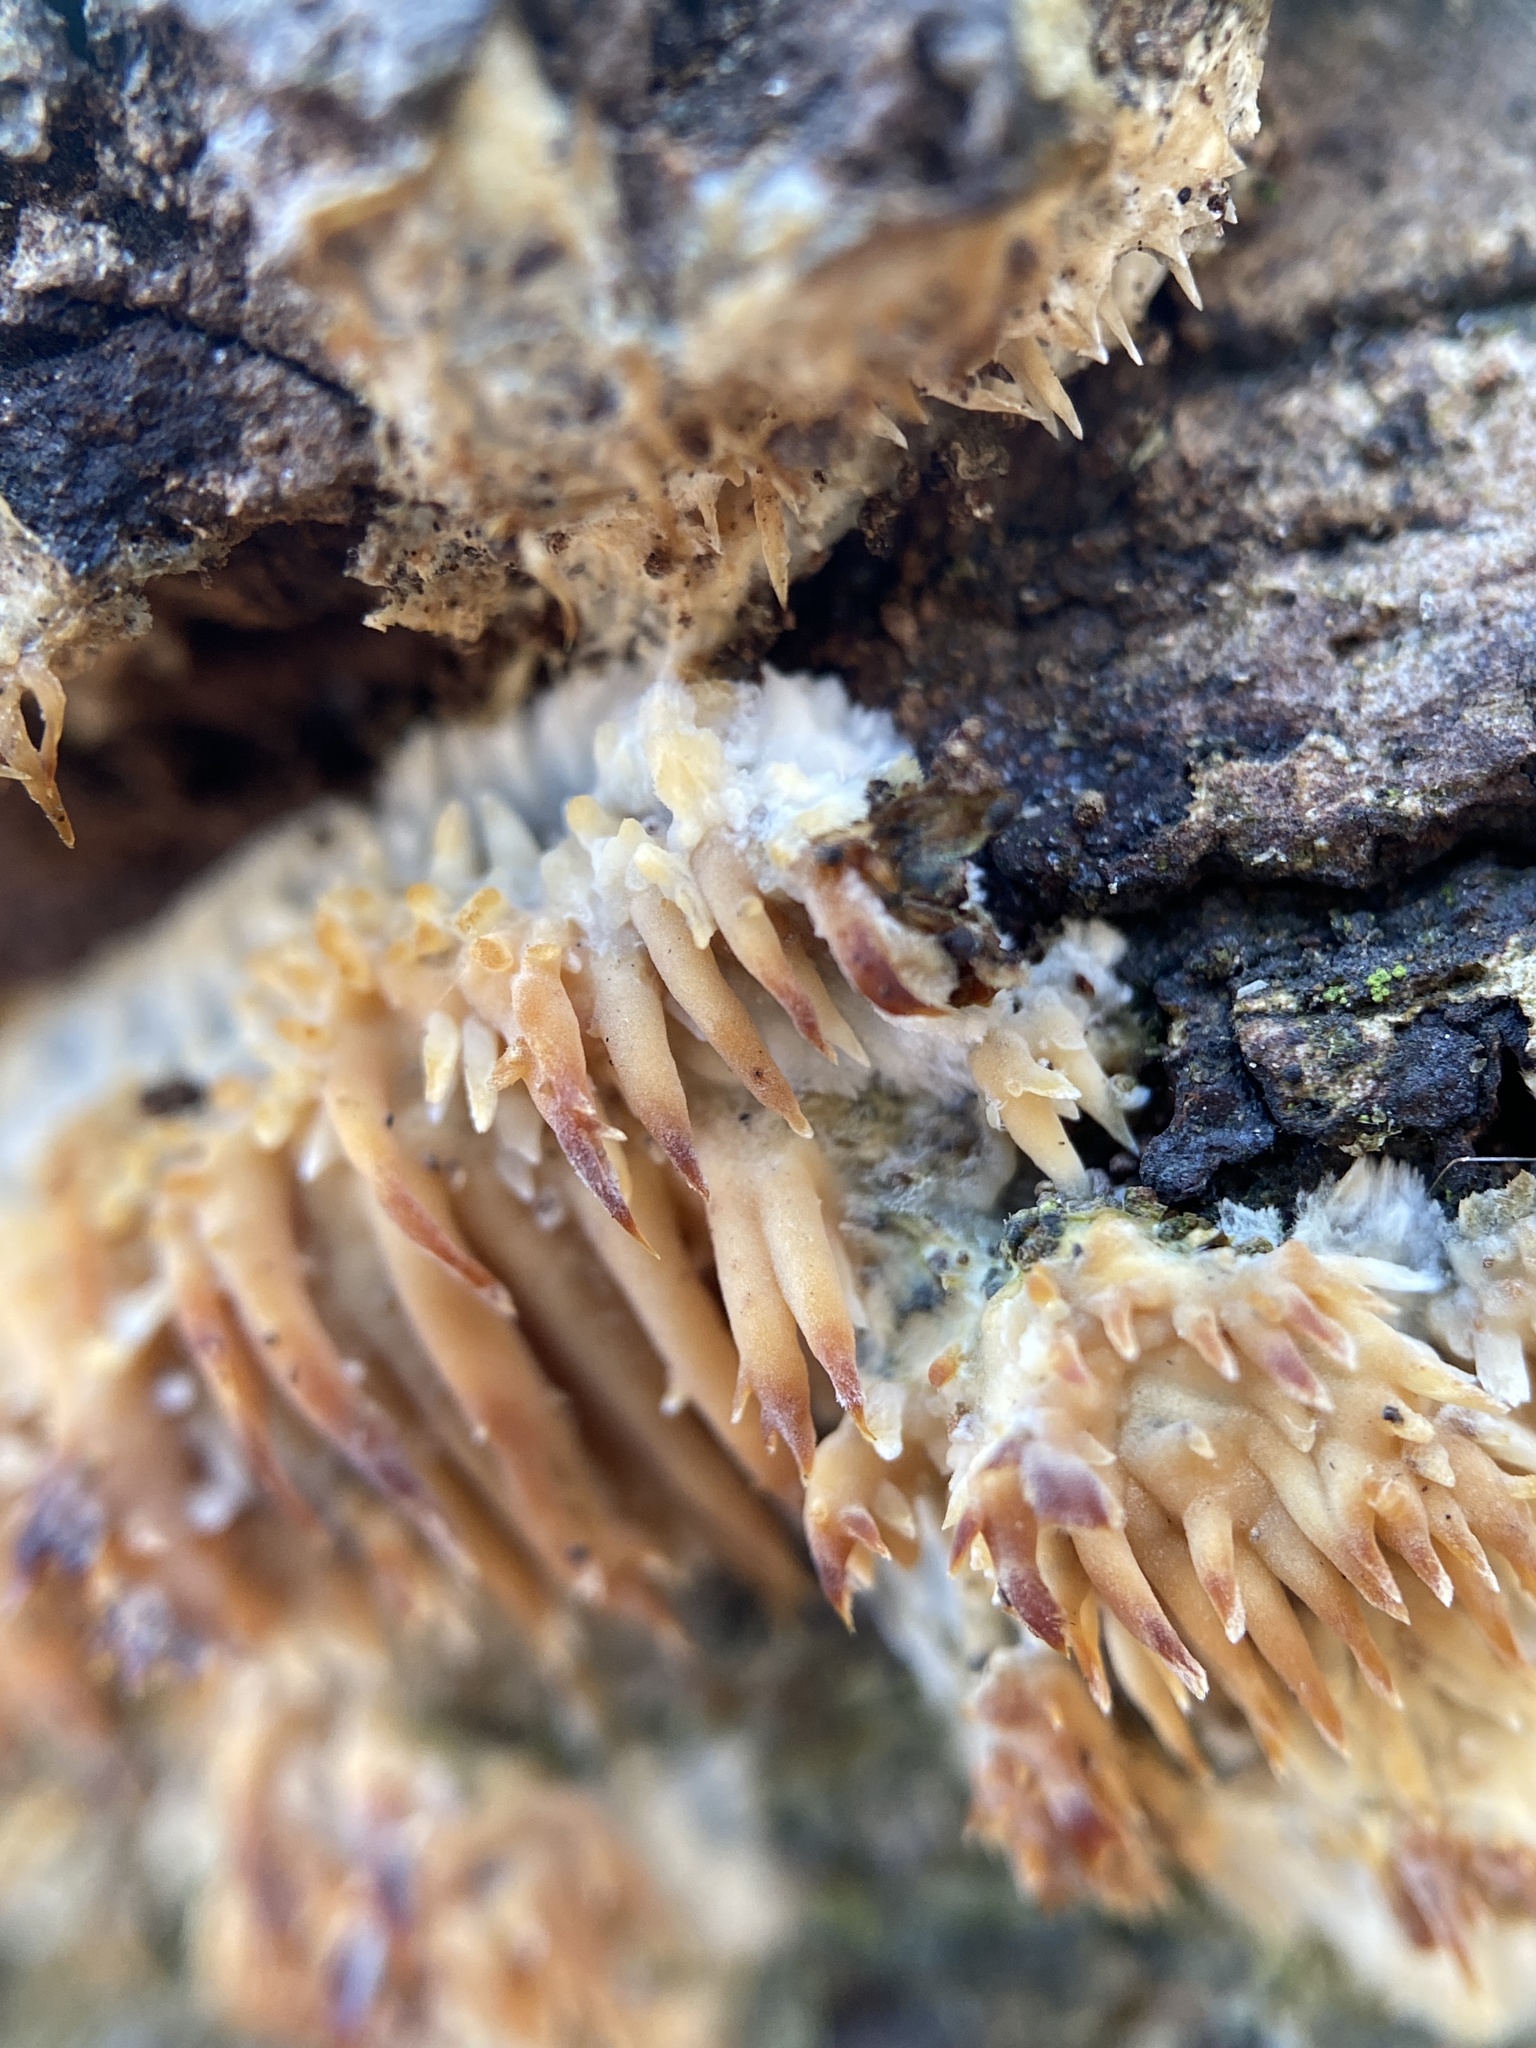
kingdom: Fungi
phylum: Basidiomycota
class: Agaricomycetes
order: Agaricales
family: Radulomycetaceae
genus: Radulomyces
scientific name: Radulomyces copelandii
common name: Asian beauty
